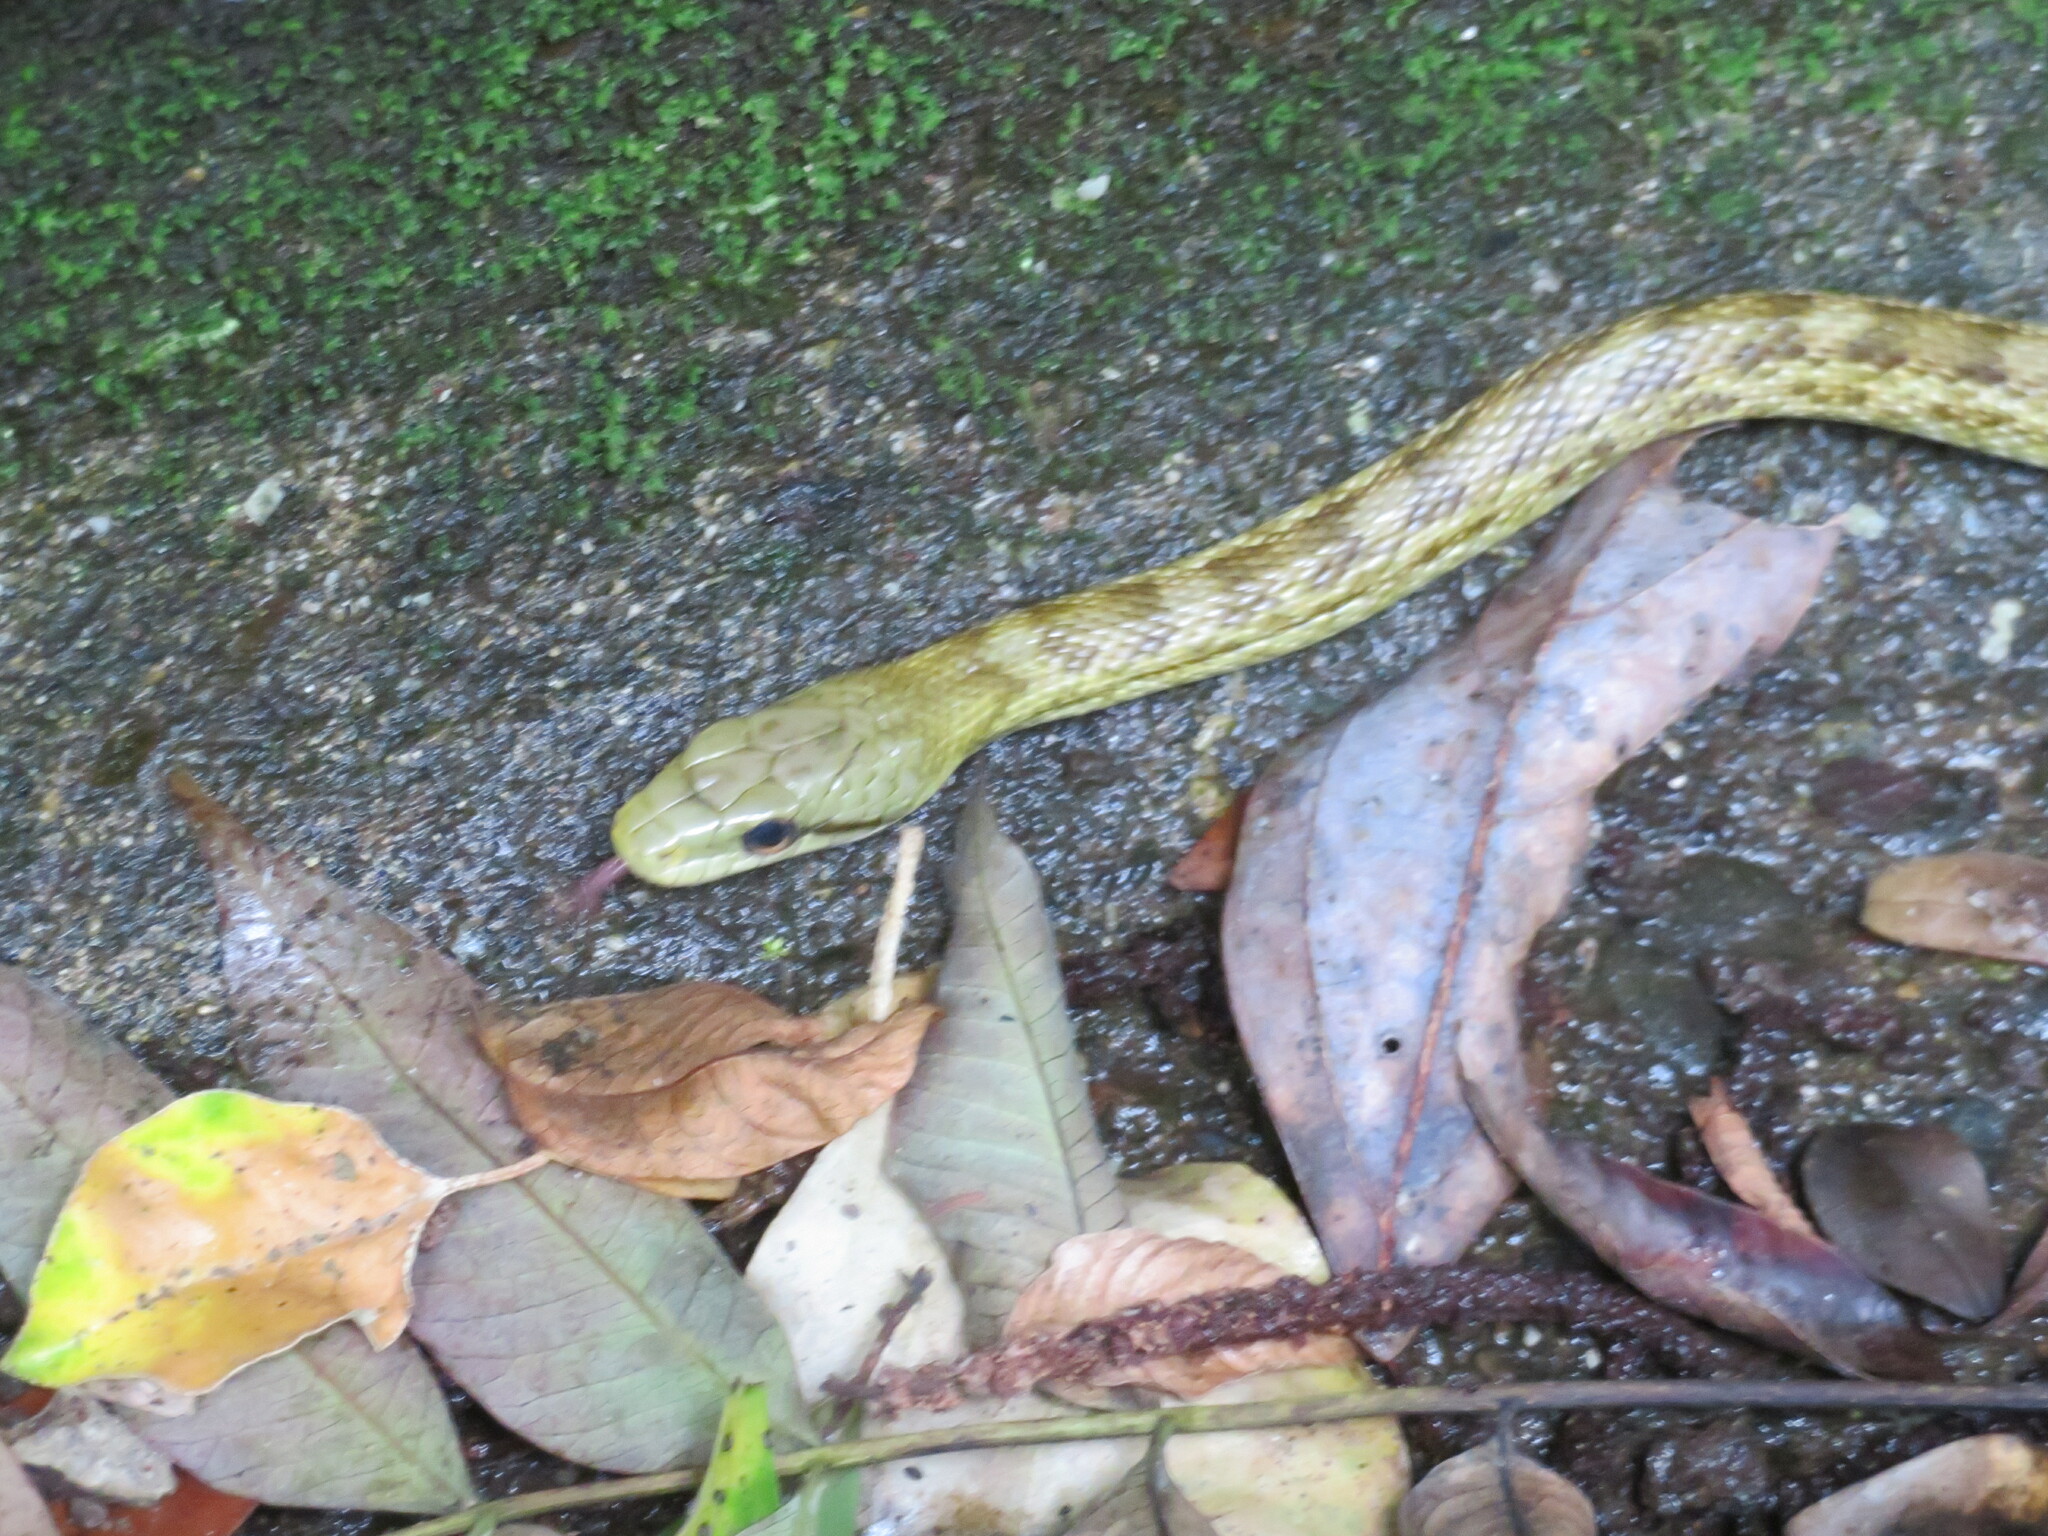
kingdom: Animalia
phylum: Chordata
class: Squamata
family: Colubridae
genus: Elaphe
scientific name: Elaphe climacophora
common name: Japanese ratsnake
